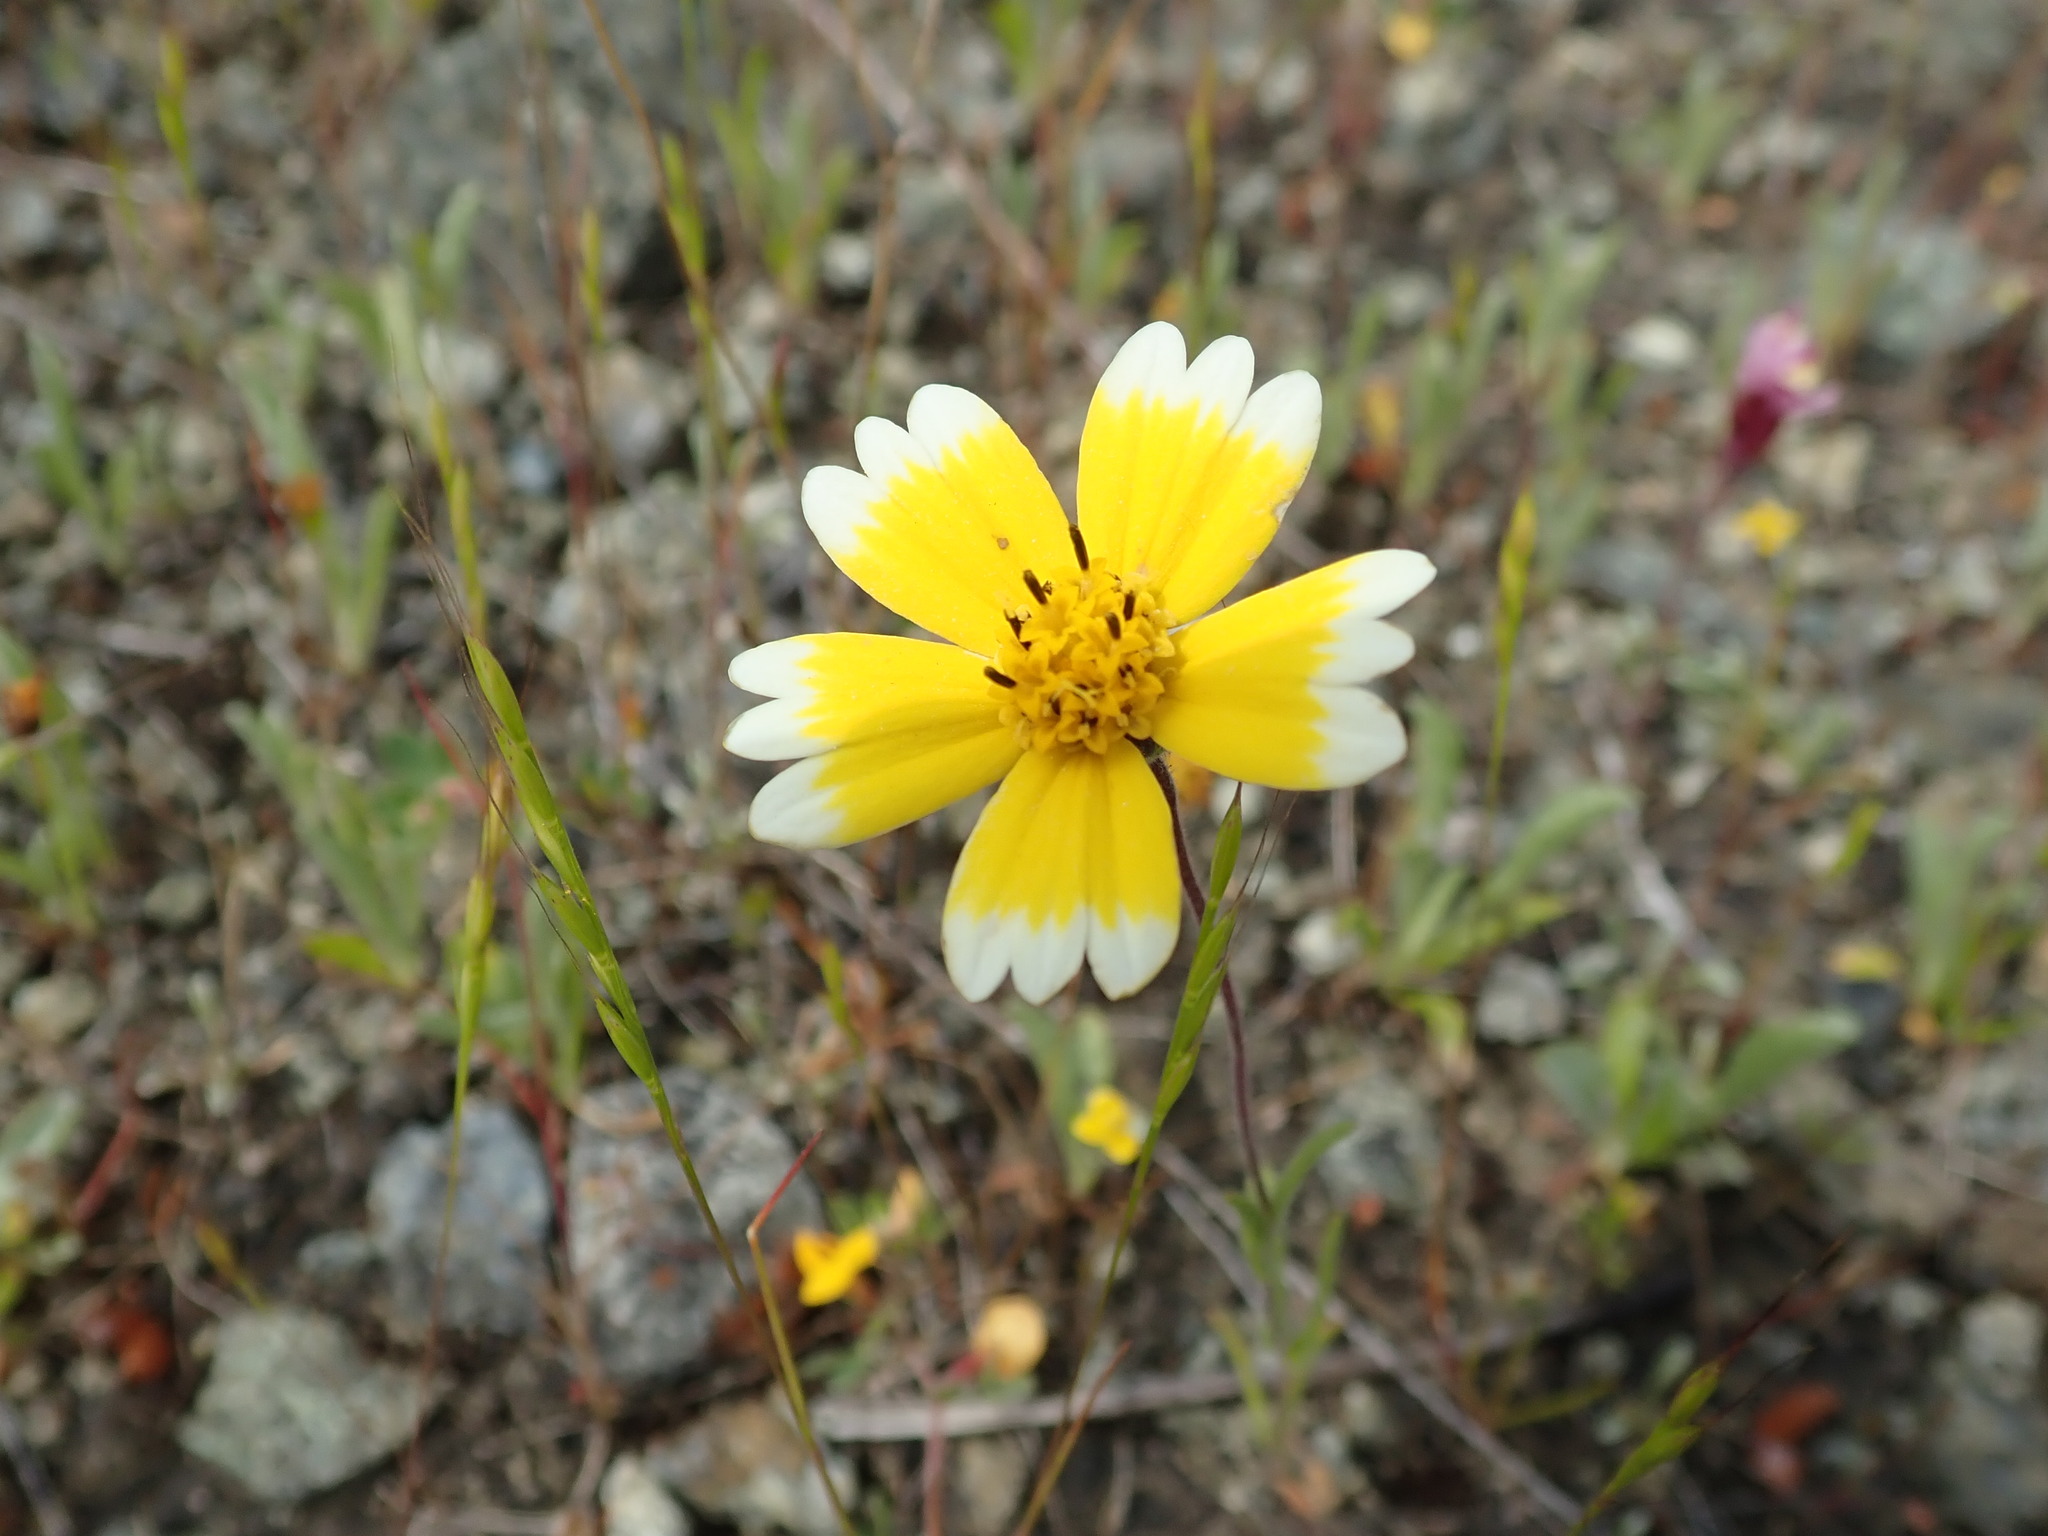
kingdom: Plantae
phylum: Tracheophyta
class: Magnoliopsida
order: Asterales
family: Asteraceae
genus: Layia
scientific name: Layia platyglossa
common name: Tidy-tips
